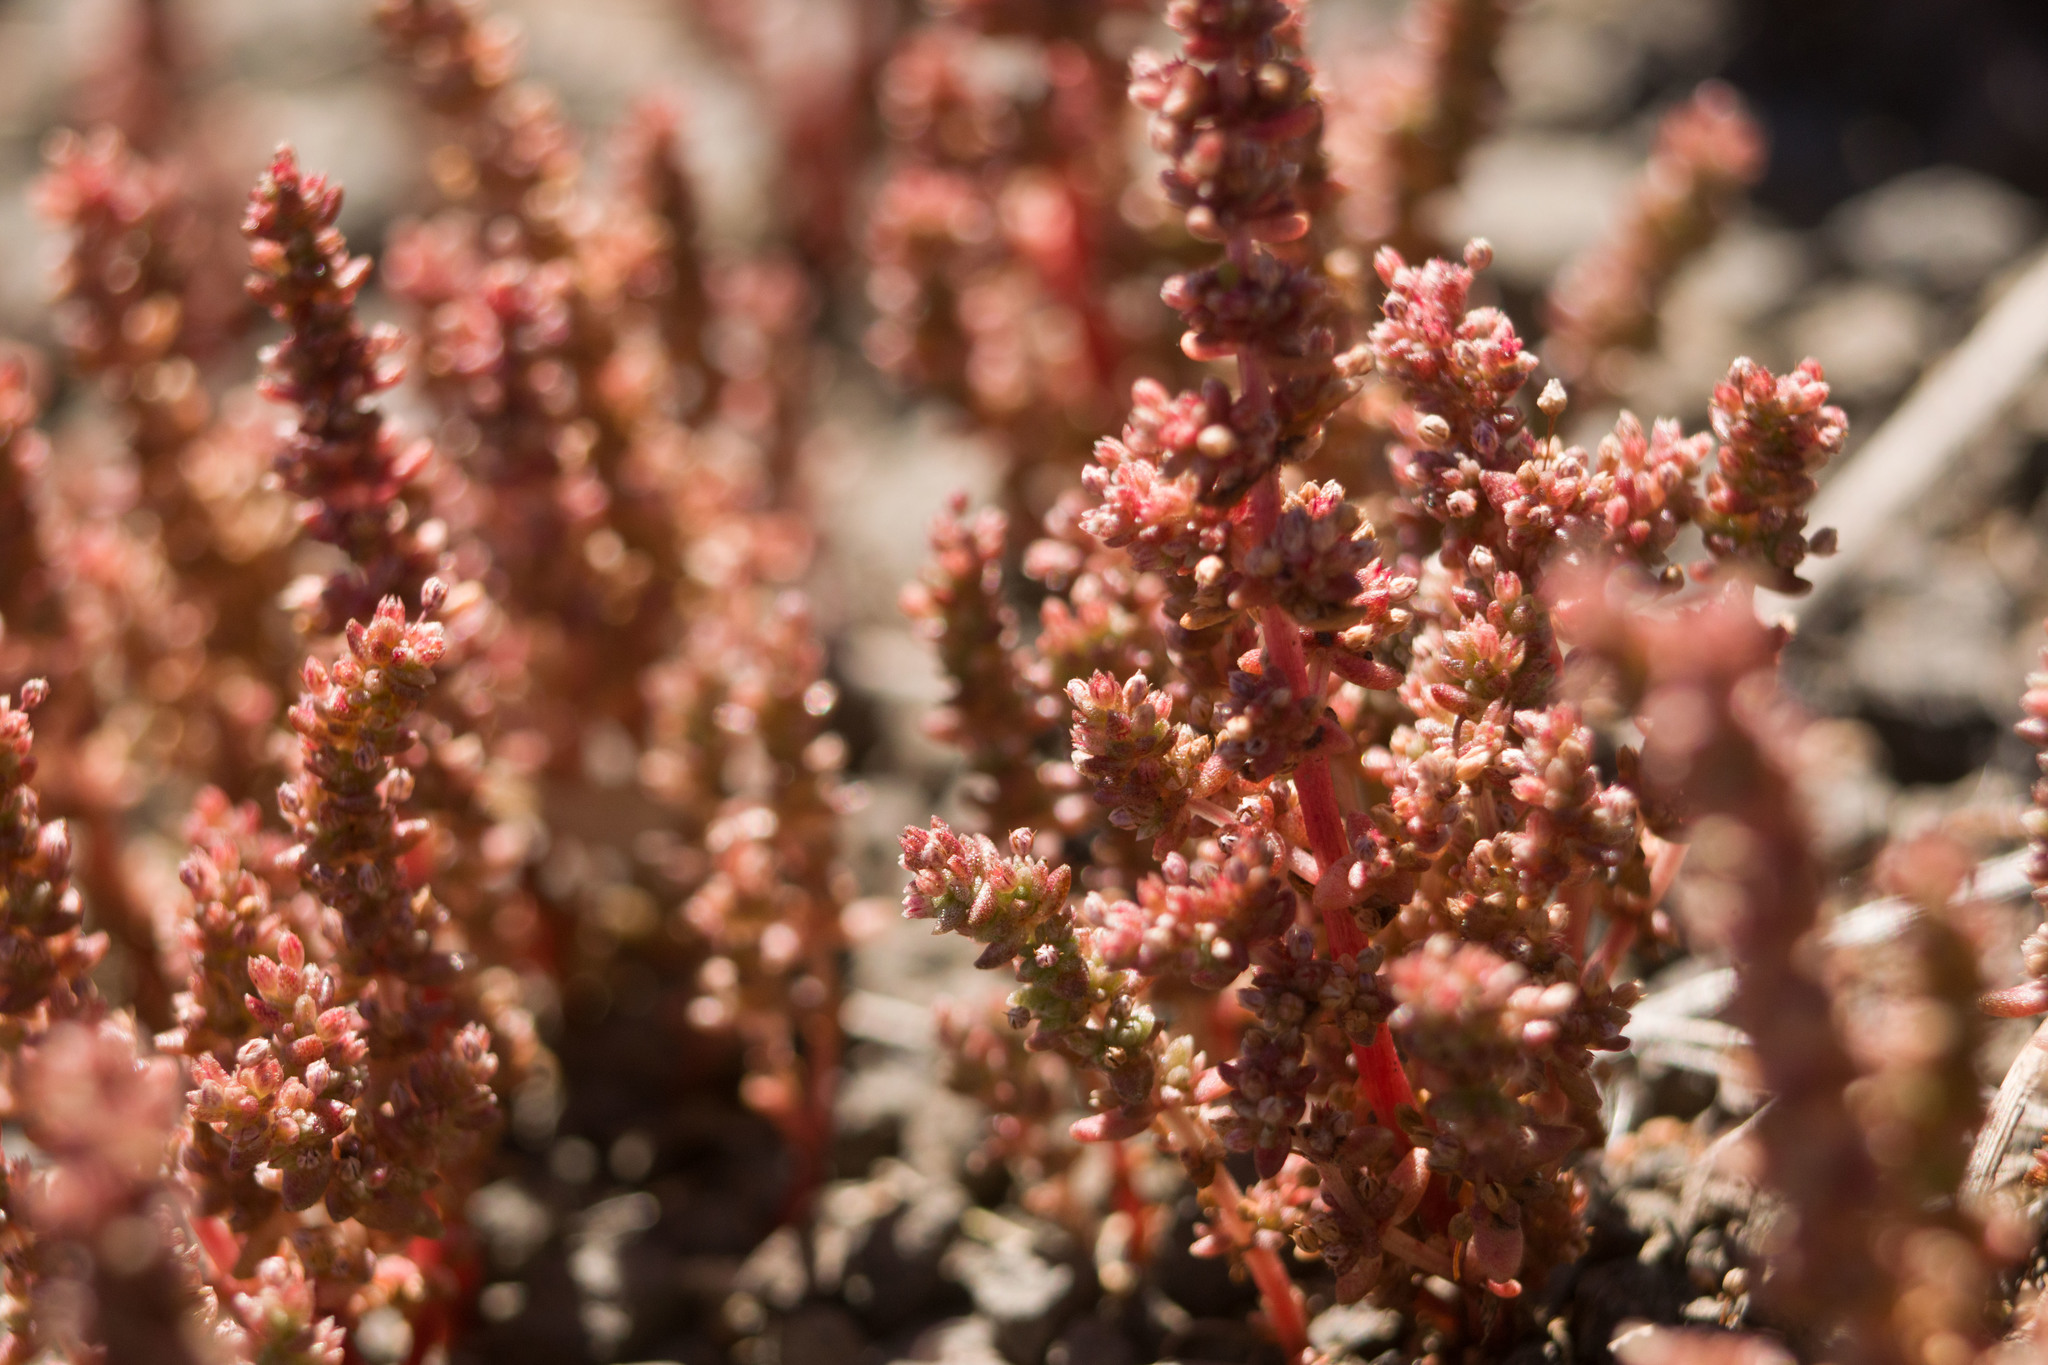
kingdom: Plantae
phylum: Tracheophyta
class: Magnoliopsida
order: Saxifragales
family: Crassulaceae
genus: Crassula
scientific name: Crassula sieberiana
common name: Siberian pygmyweed
